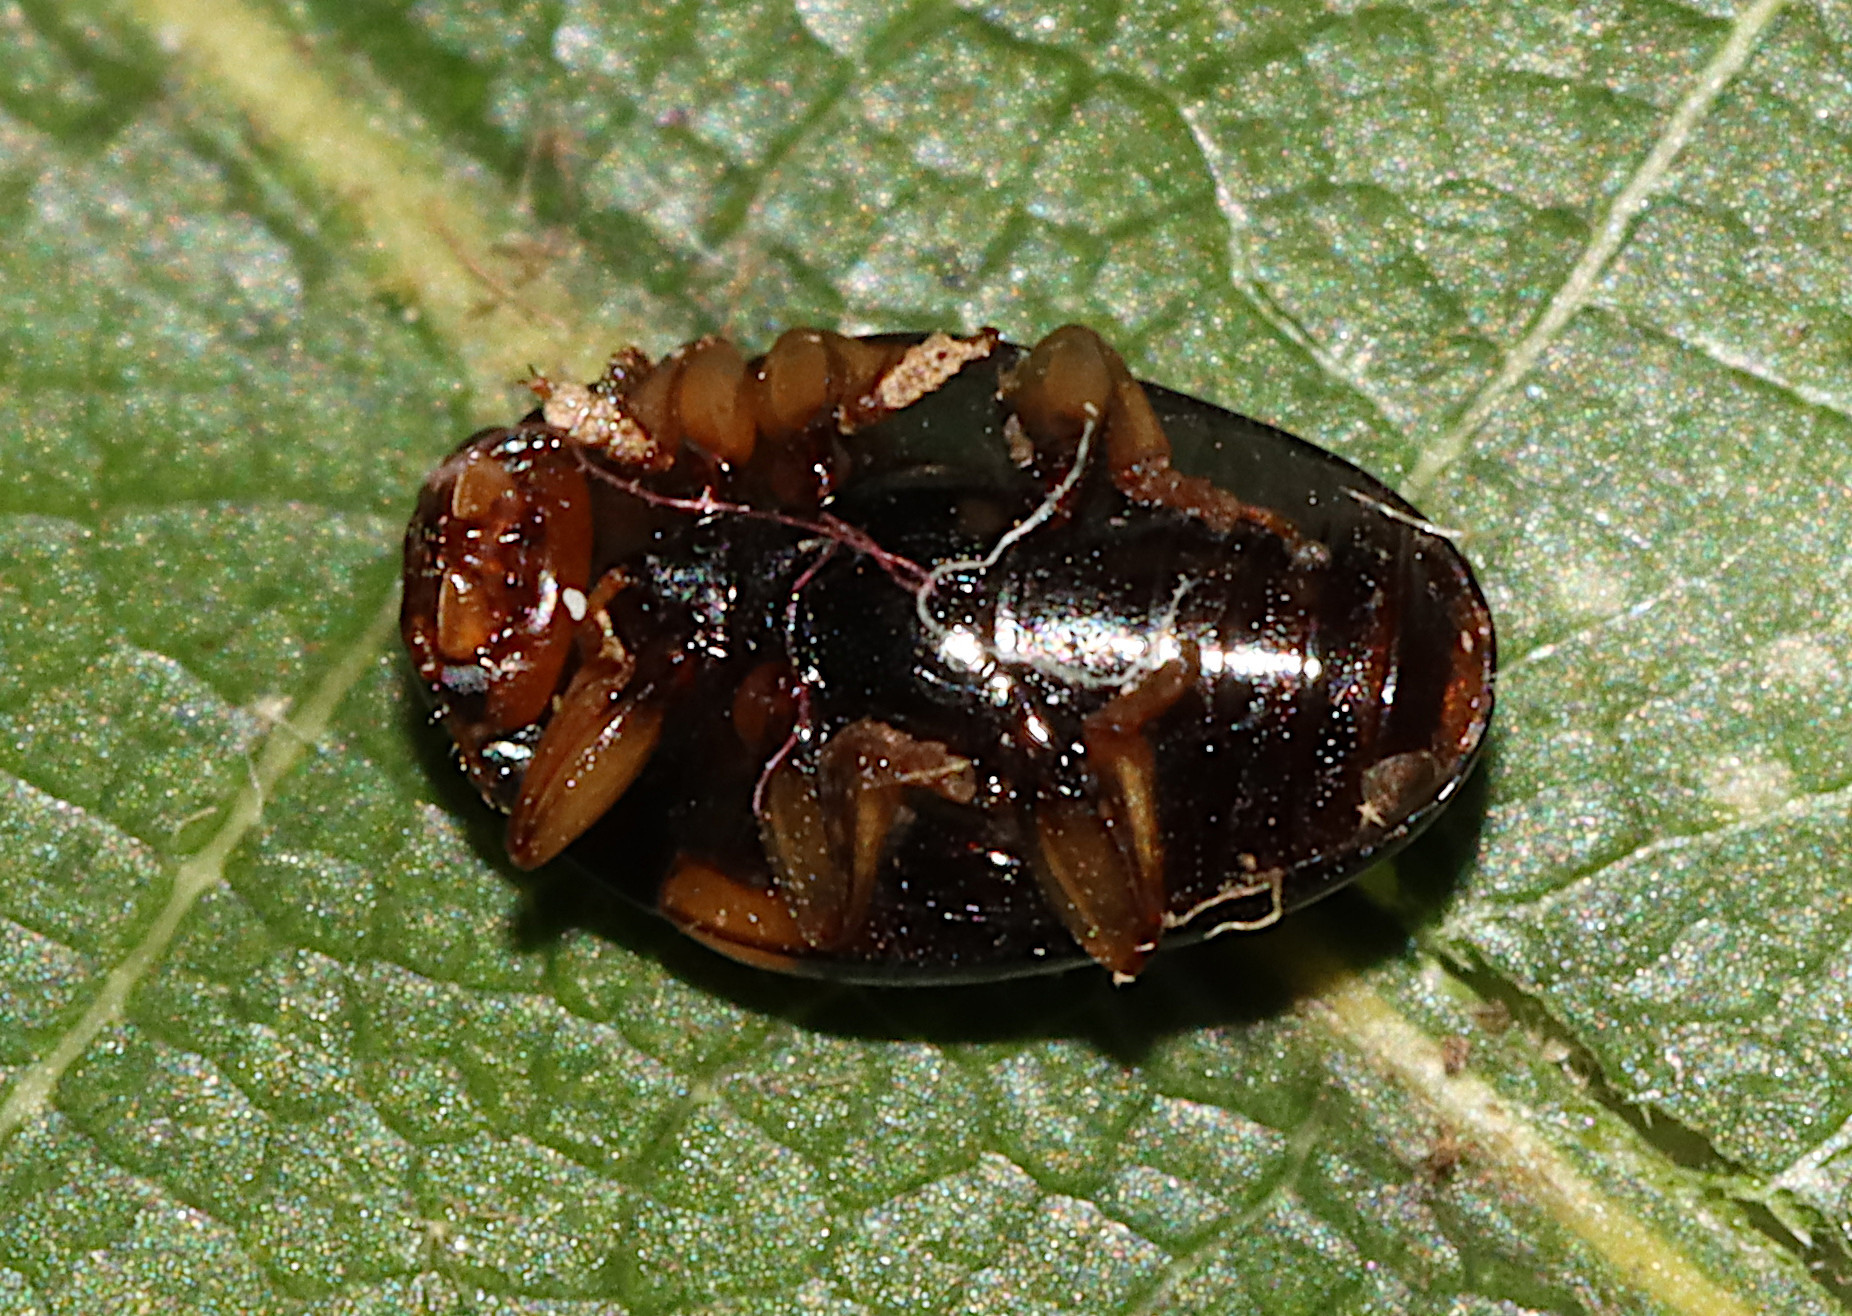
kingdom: Animalia
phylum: Arthropoda
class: Insecta
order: Coleoptera
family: Erotylidae
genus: Tritoma
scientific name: Tritoma humeralis
